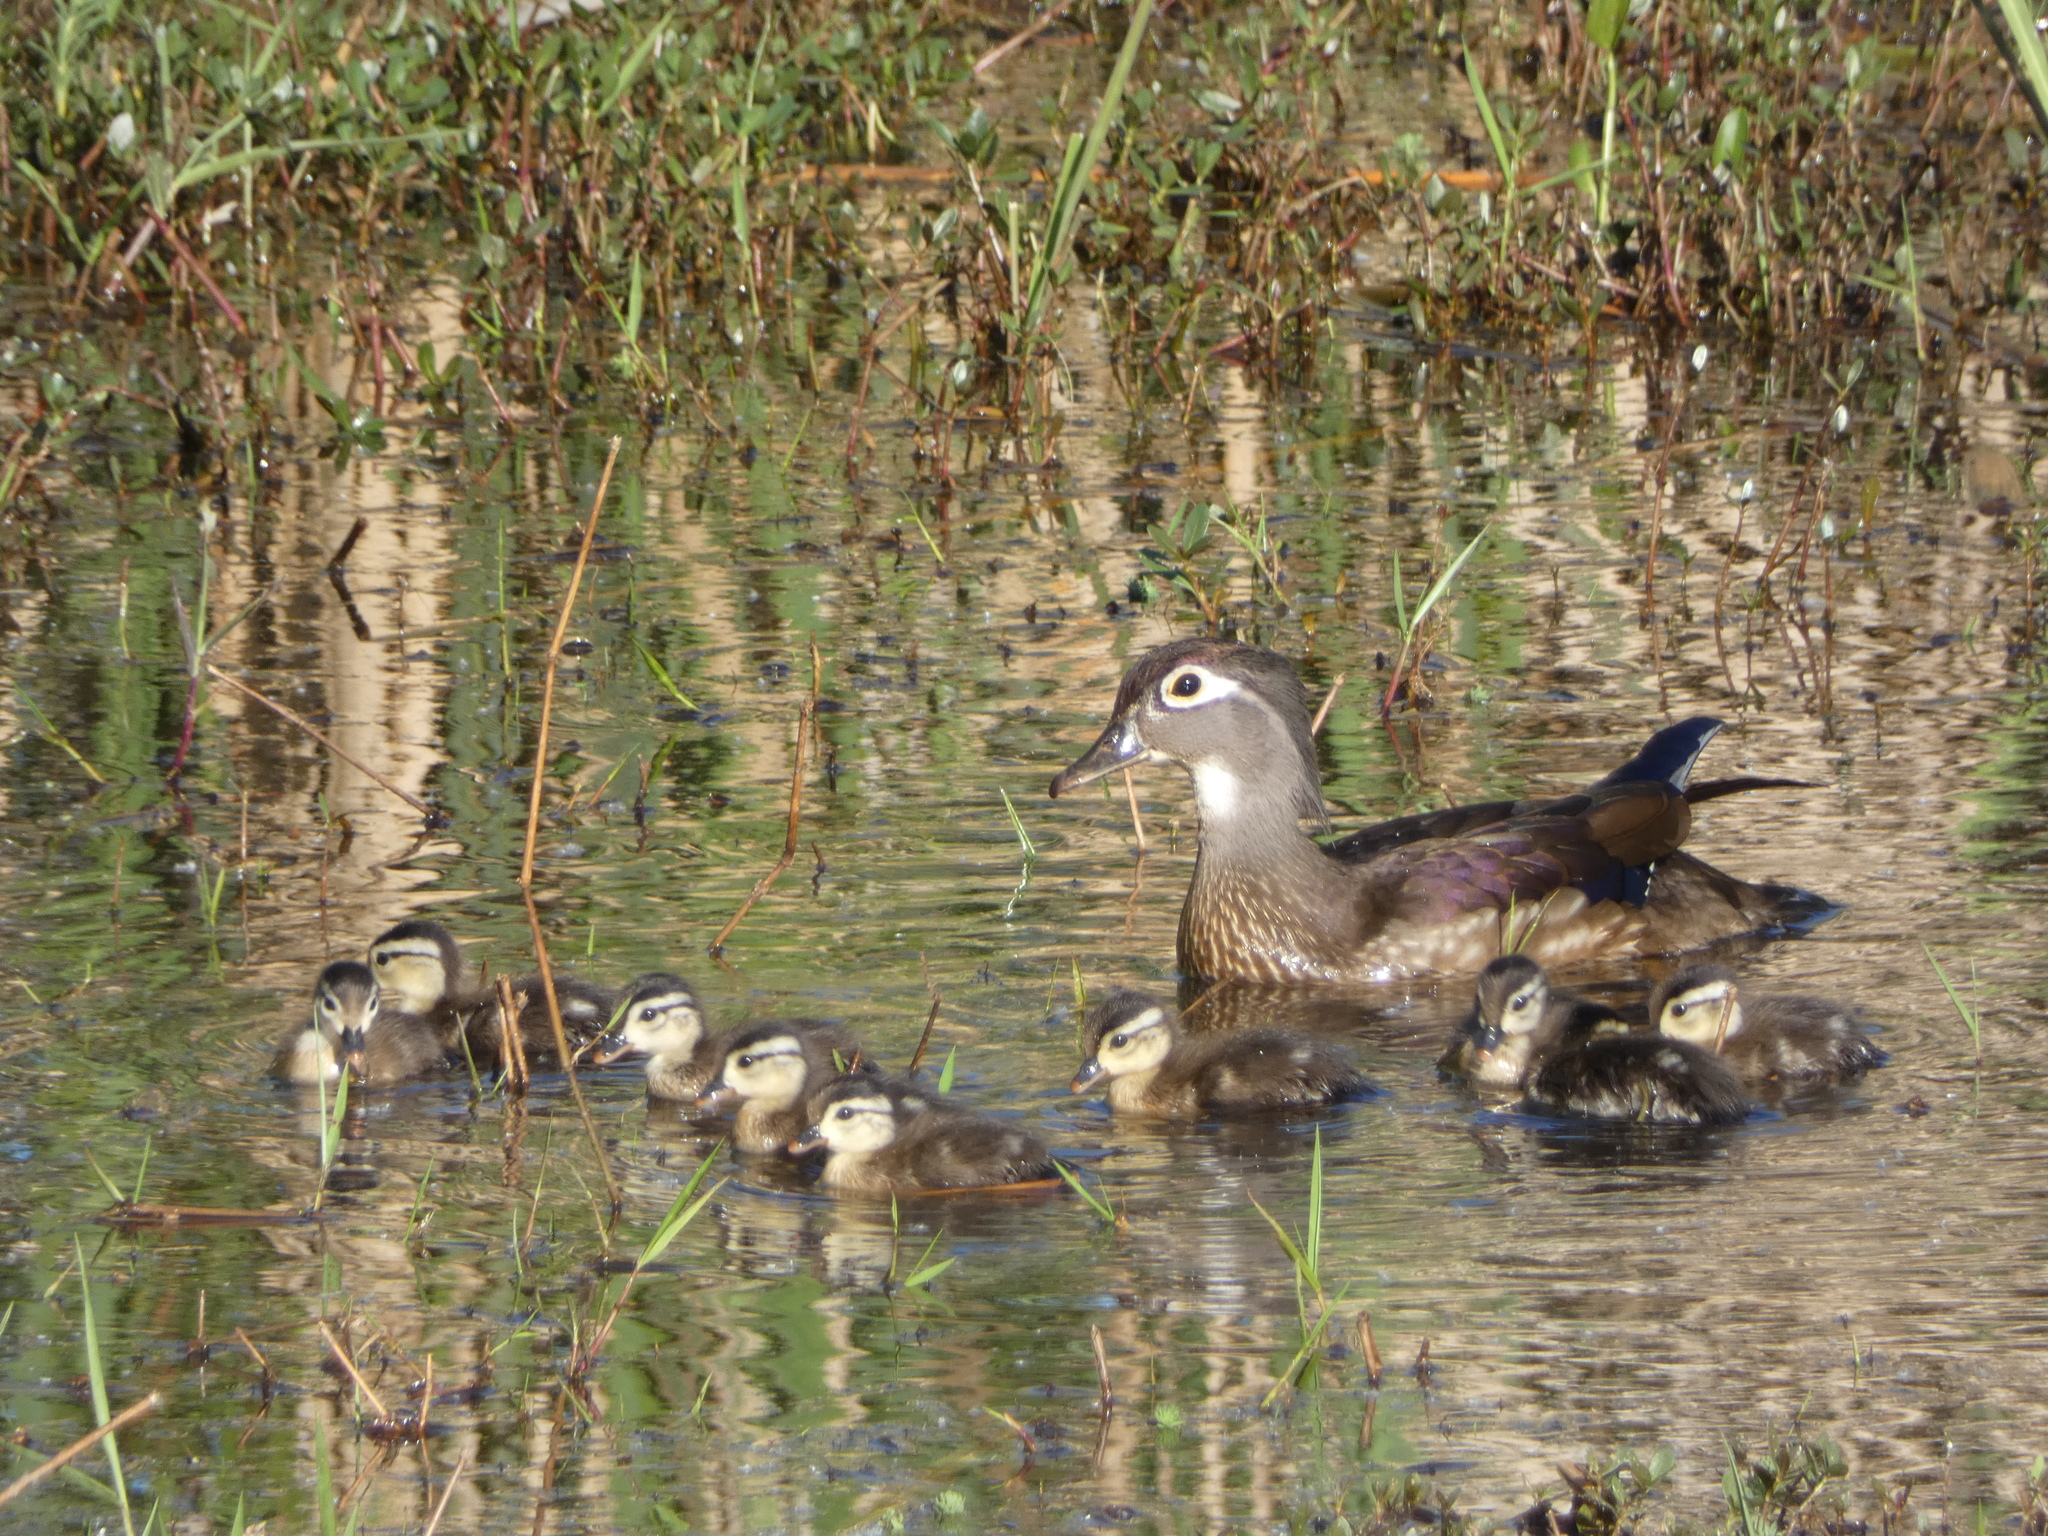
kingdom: Animalia
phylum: Chordata
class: Aves
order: Anseriformes
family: Anatidae
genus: Aix
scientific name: Aix sponsa
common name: Wood duck
